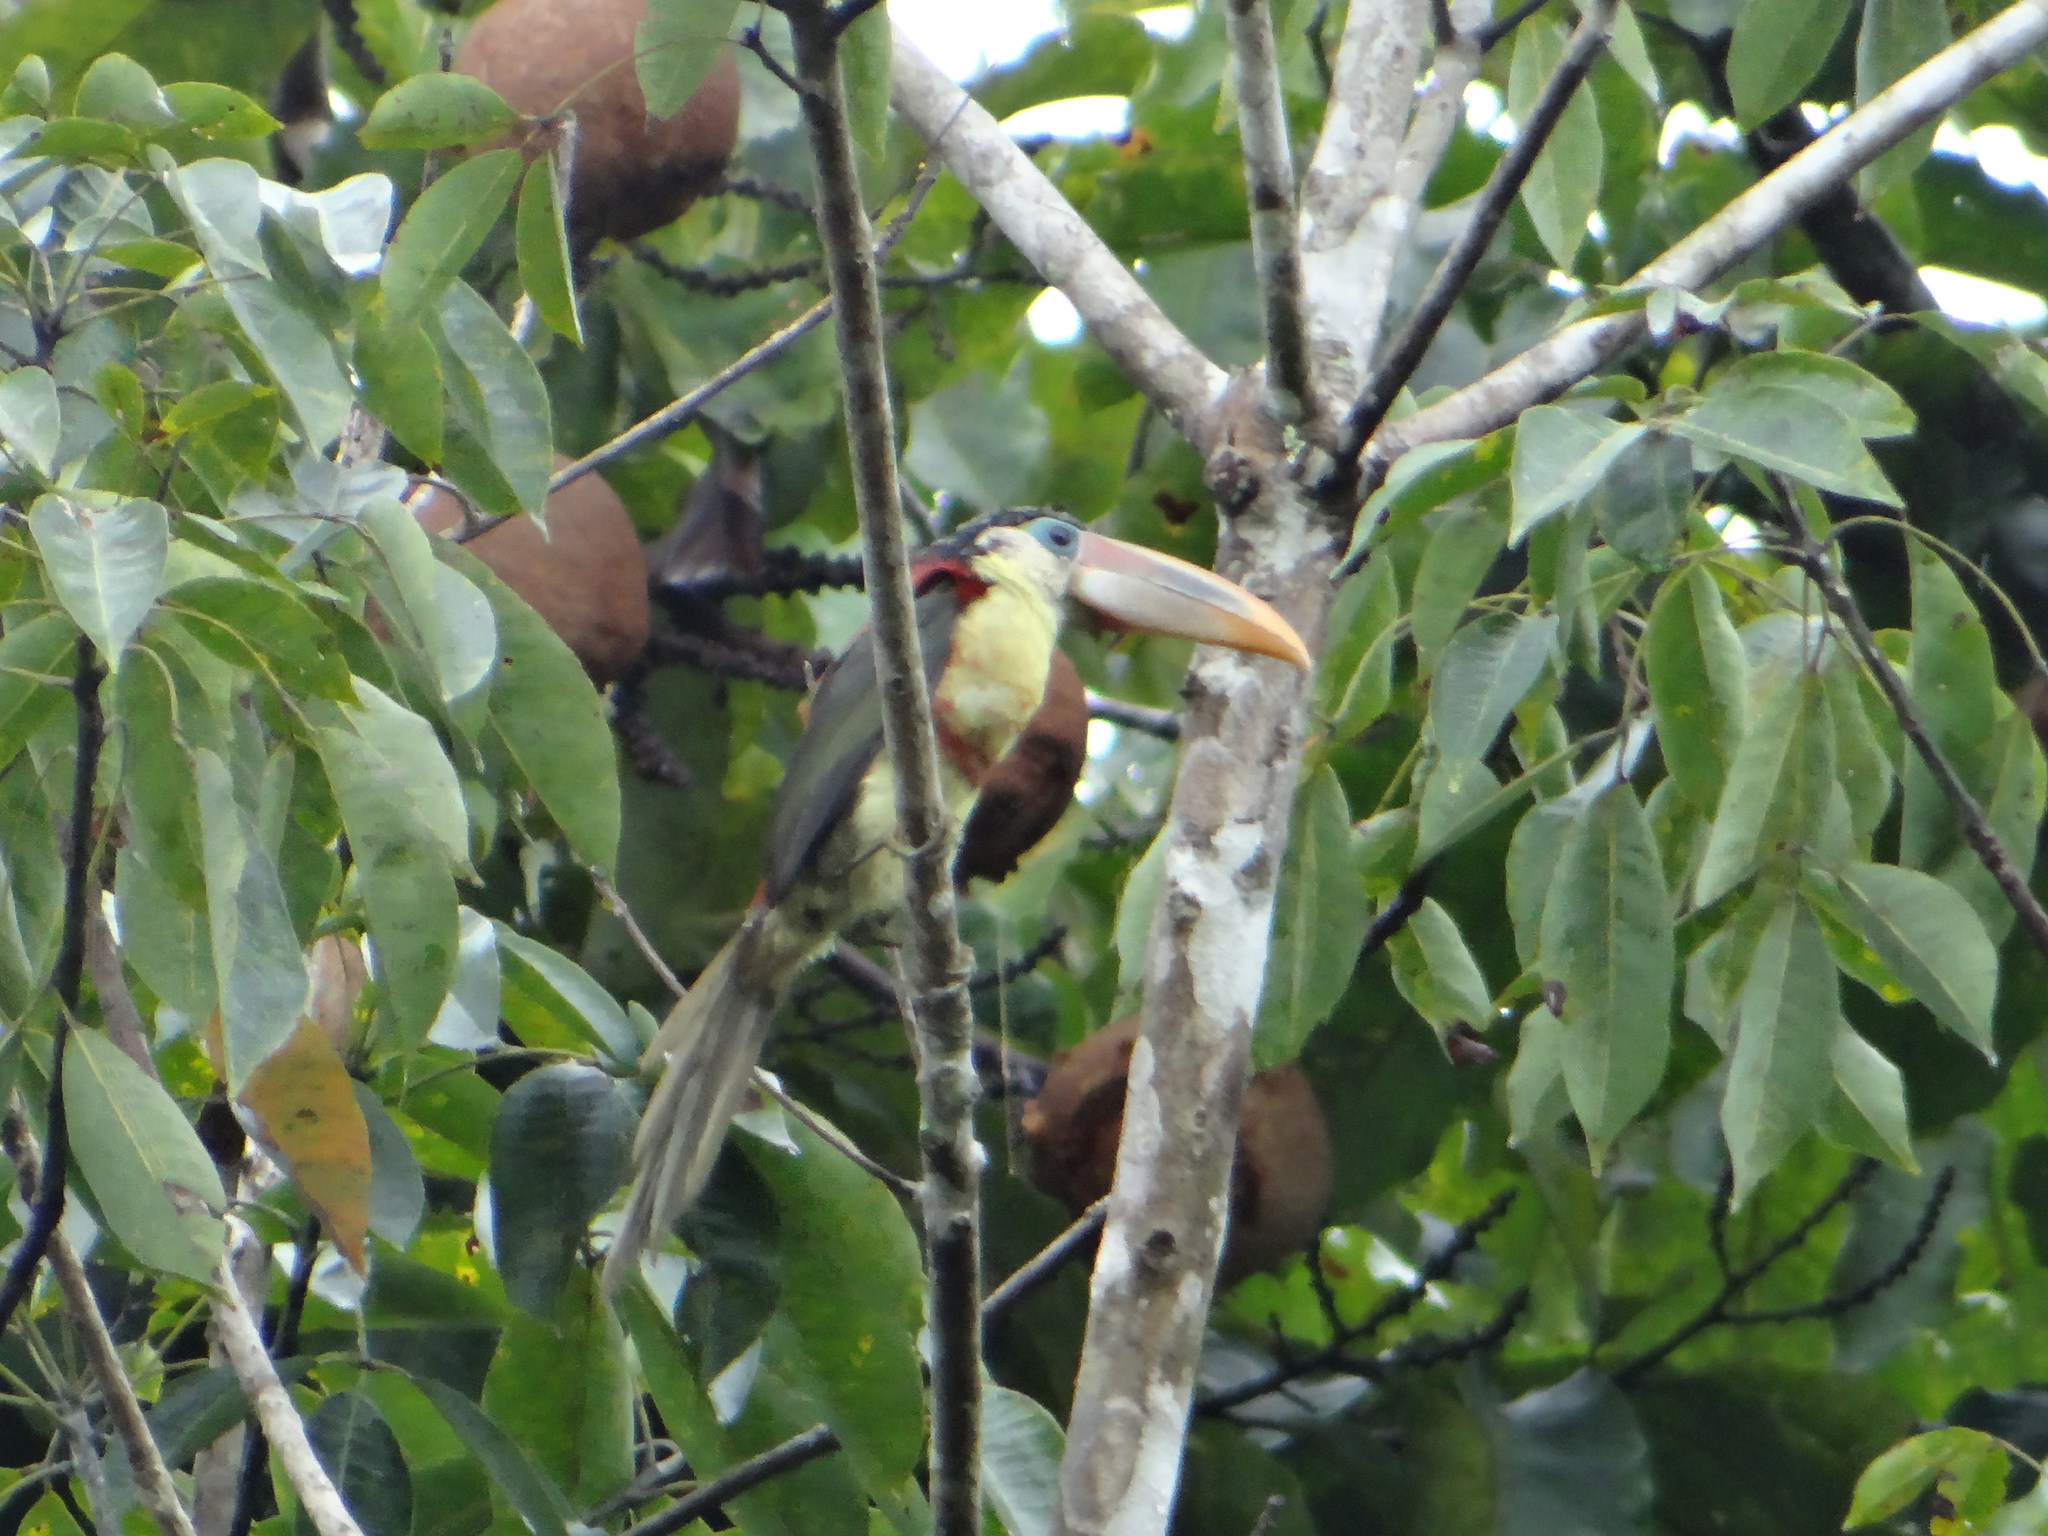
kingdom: Animalia
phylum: Chordata
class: Aves
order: Piciformes
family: Ramphastidae
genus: Pteroglossus
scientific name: Pteroglossus beauharnaisii
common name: Curl-crested aracari
